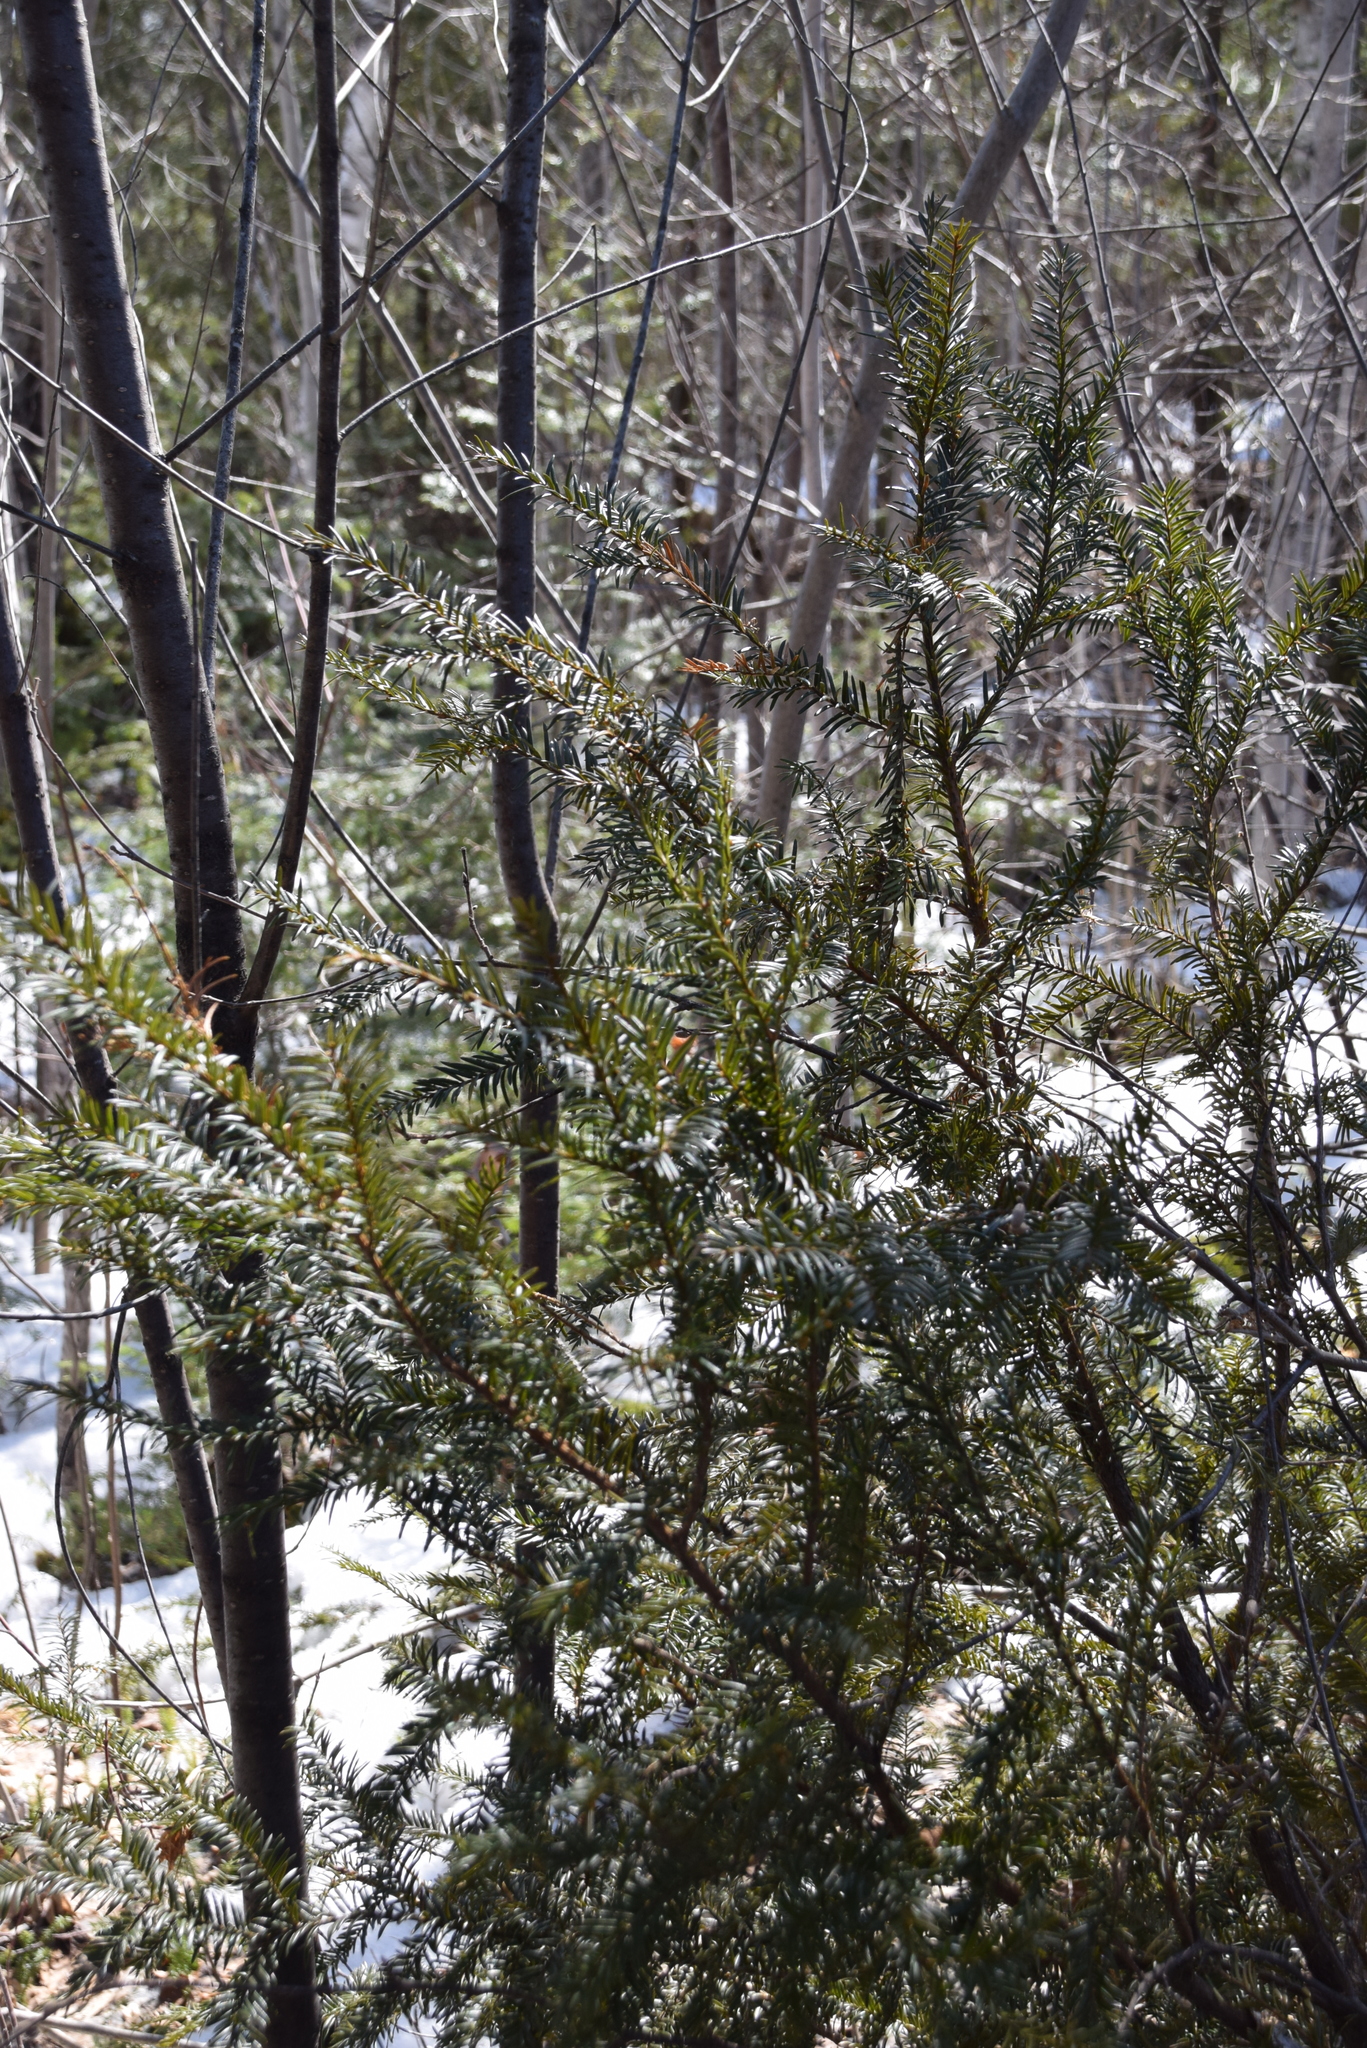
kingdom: Plantae
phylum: Tracheophyta
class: Pinopsida
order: Pinales
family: Taxaceae
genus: Taxus
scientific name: Taxus canadensis
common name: American yew
